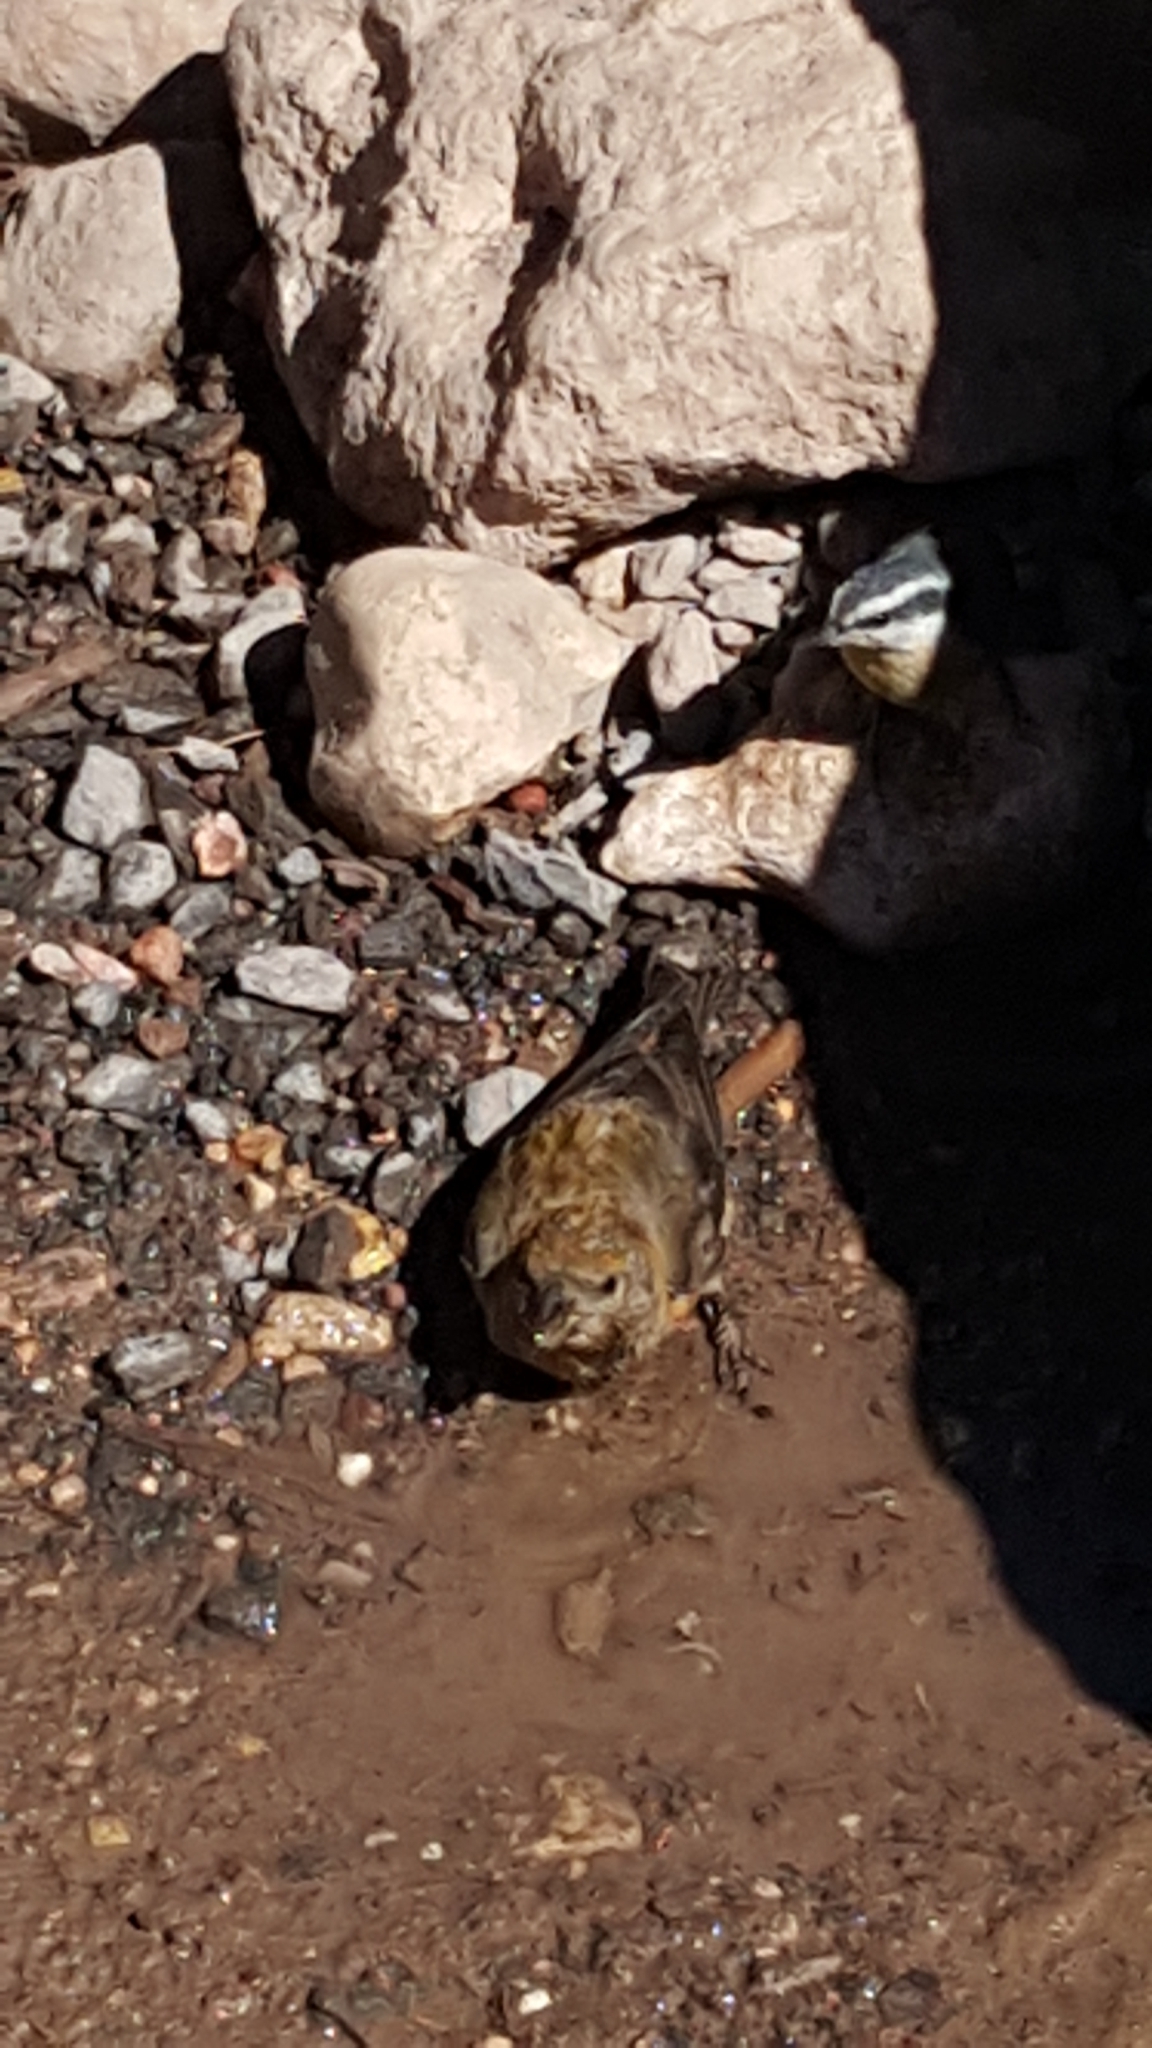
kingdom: Animalia
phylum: Chordata
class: Aves
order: Passeriformes
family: Fringillidae
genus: Loxia
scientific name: Loxia curvirostra
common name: Red crossbill
